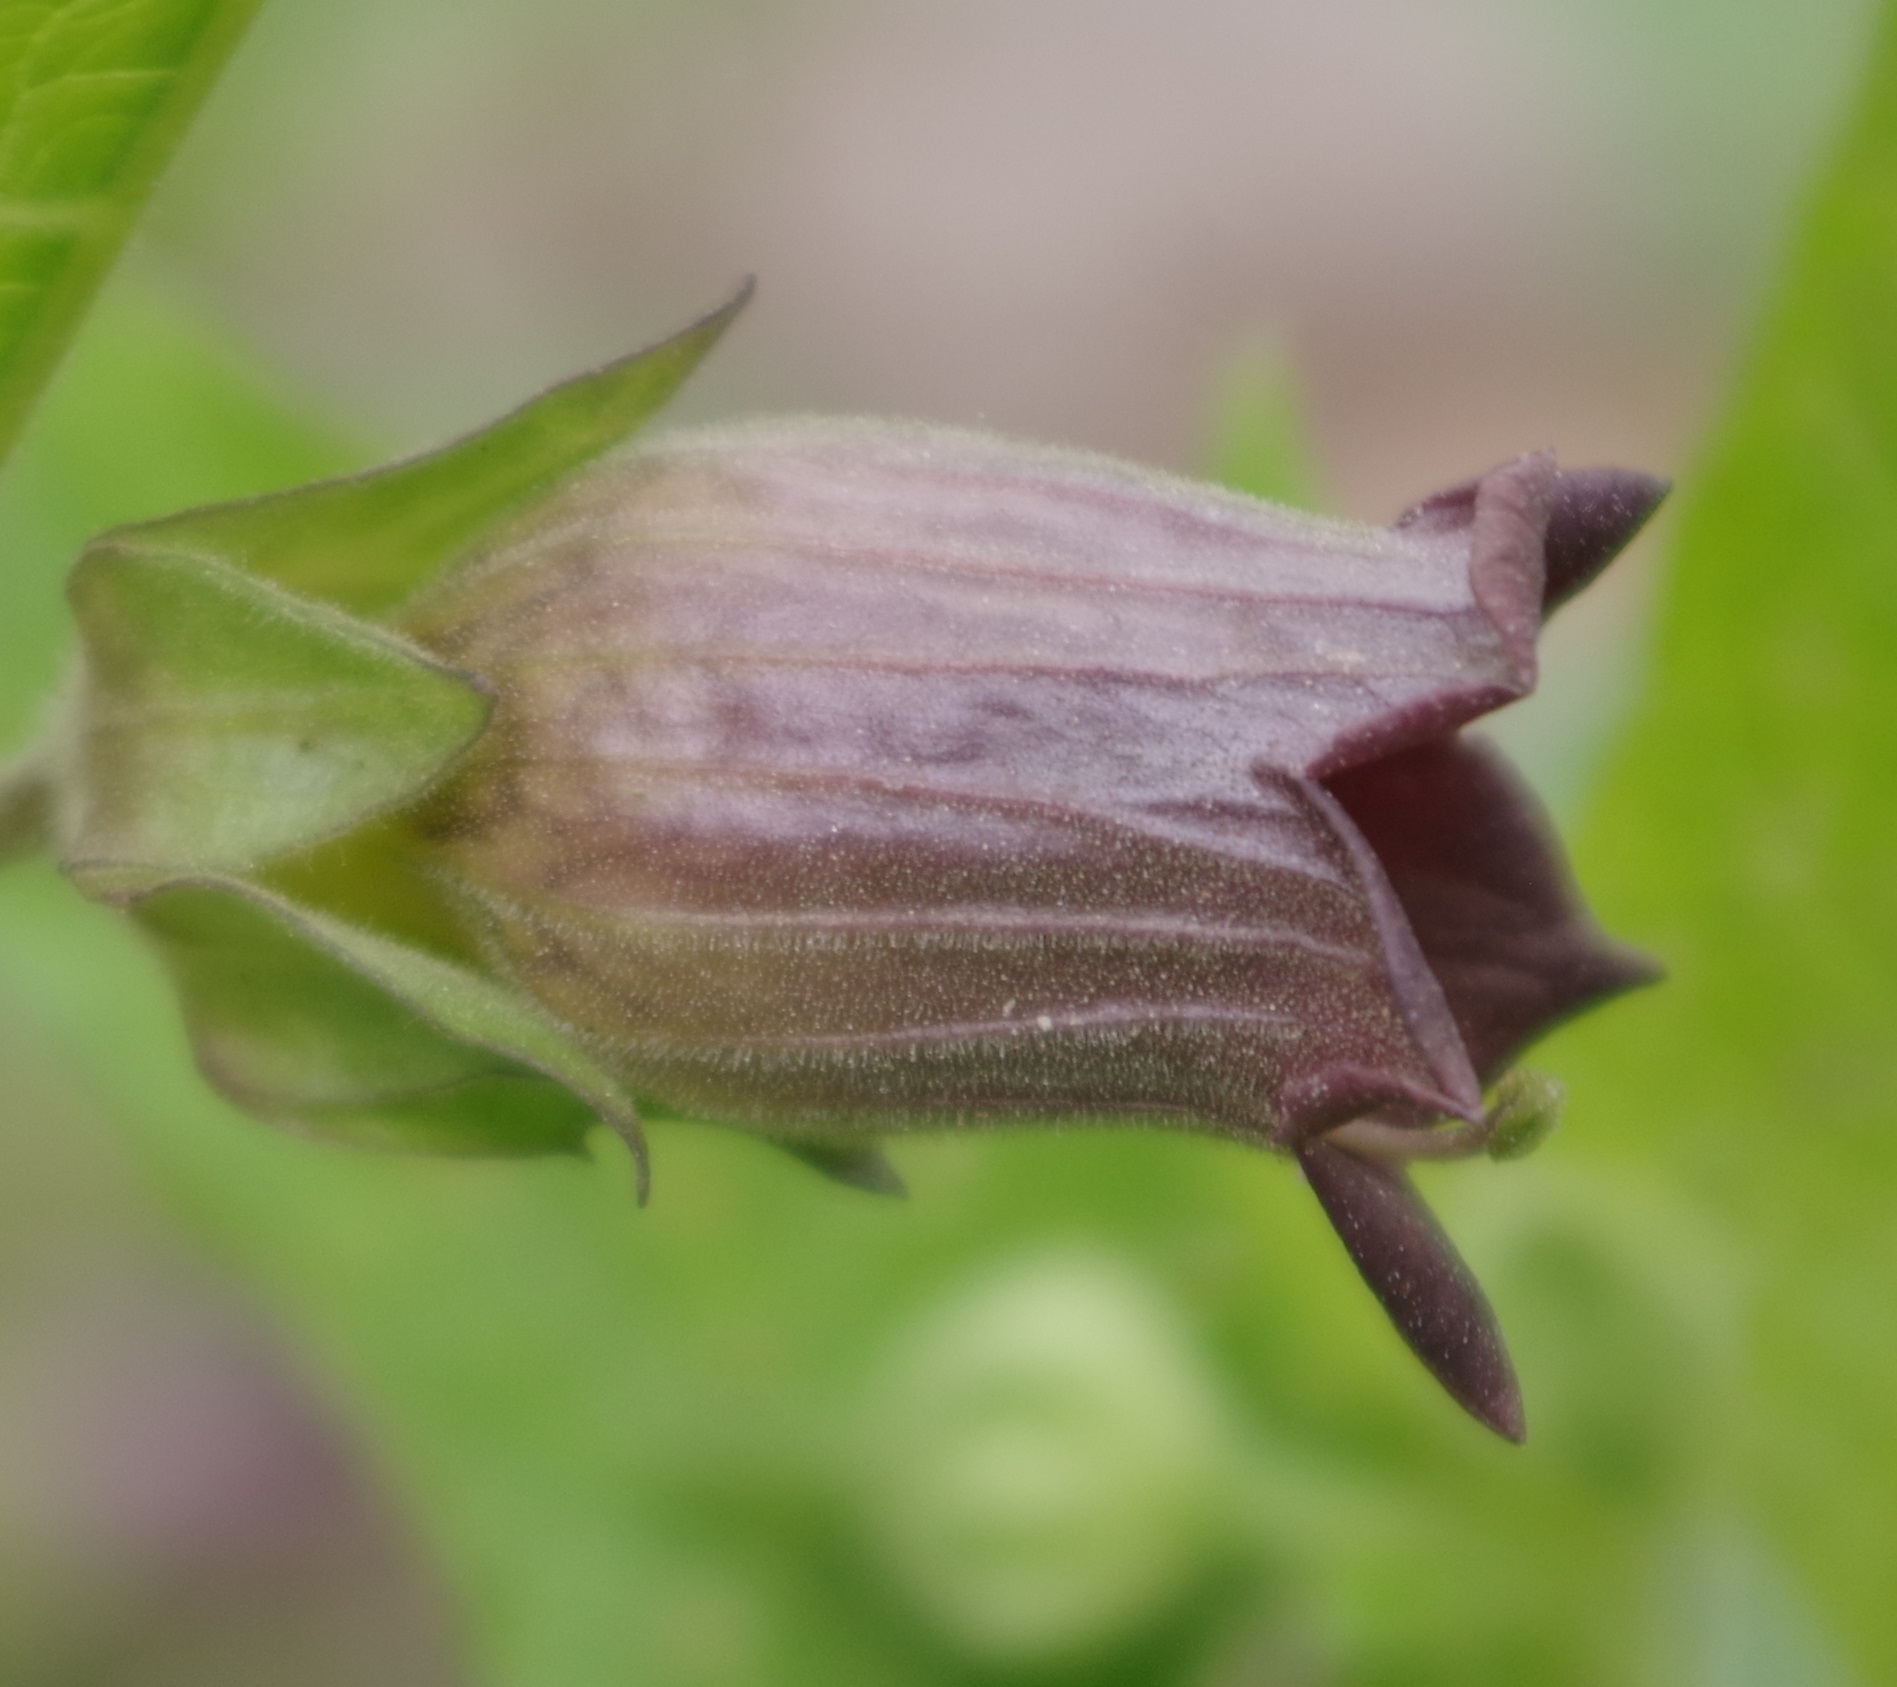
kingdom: Plantae
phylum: Tracheophyta
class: Magnoliopsida
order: Solanales
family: Solanaceae
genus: Atropa
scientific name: Atropa belladonna
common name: Deadly nightshade
